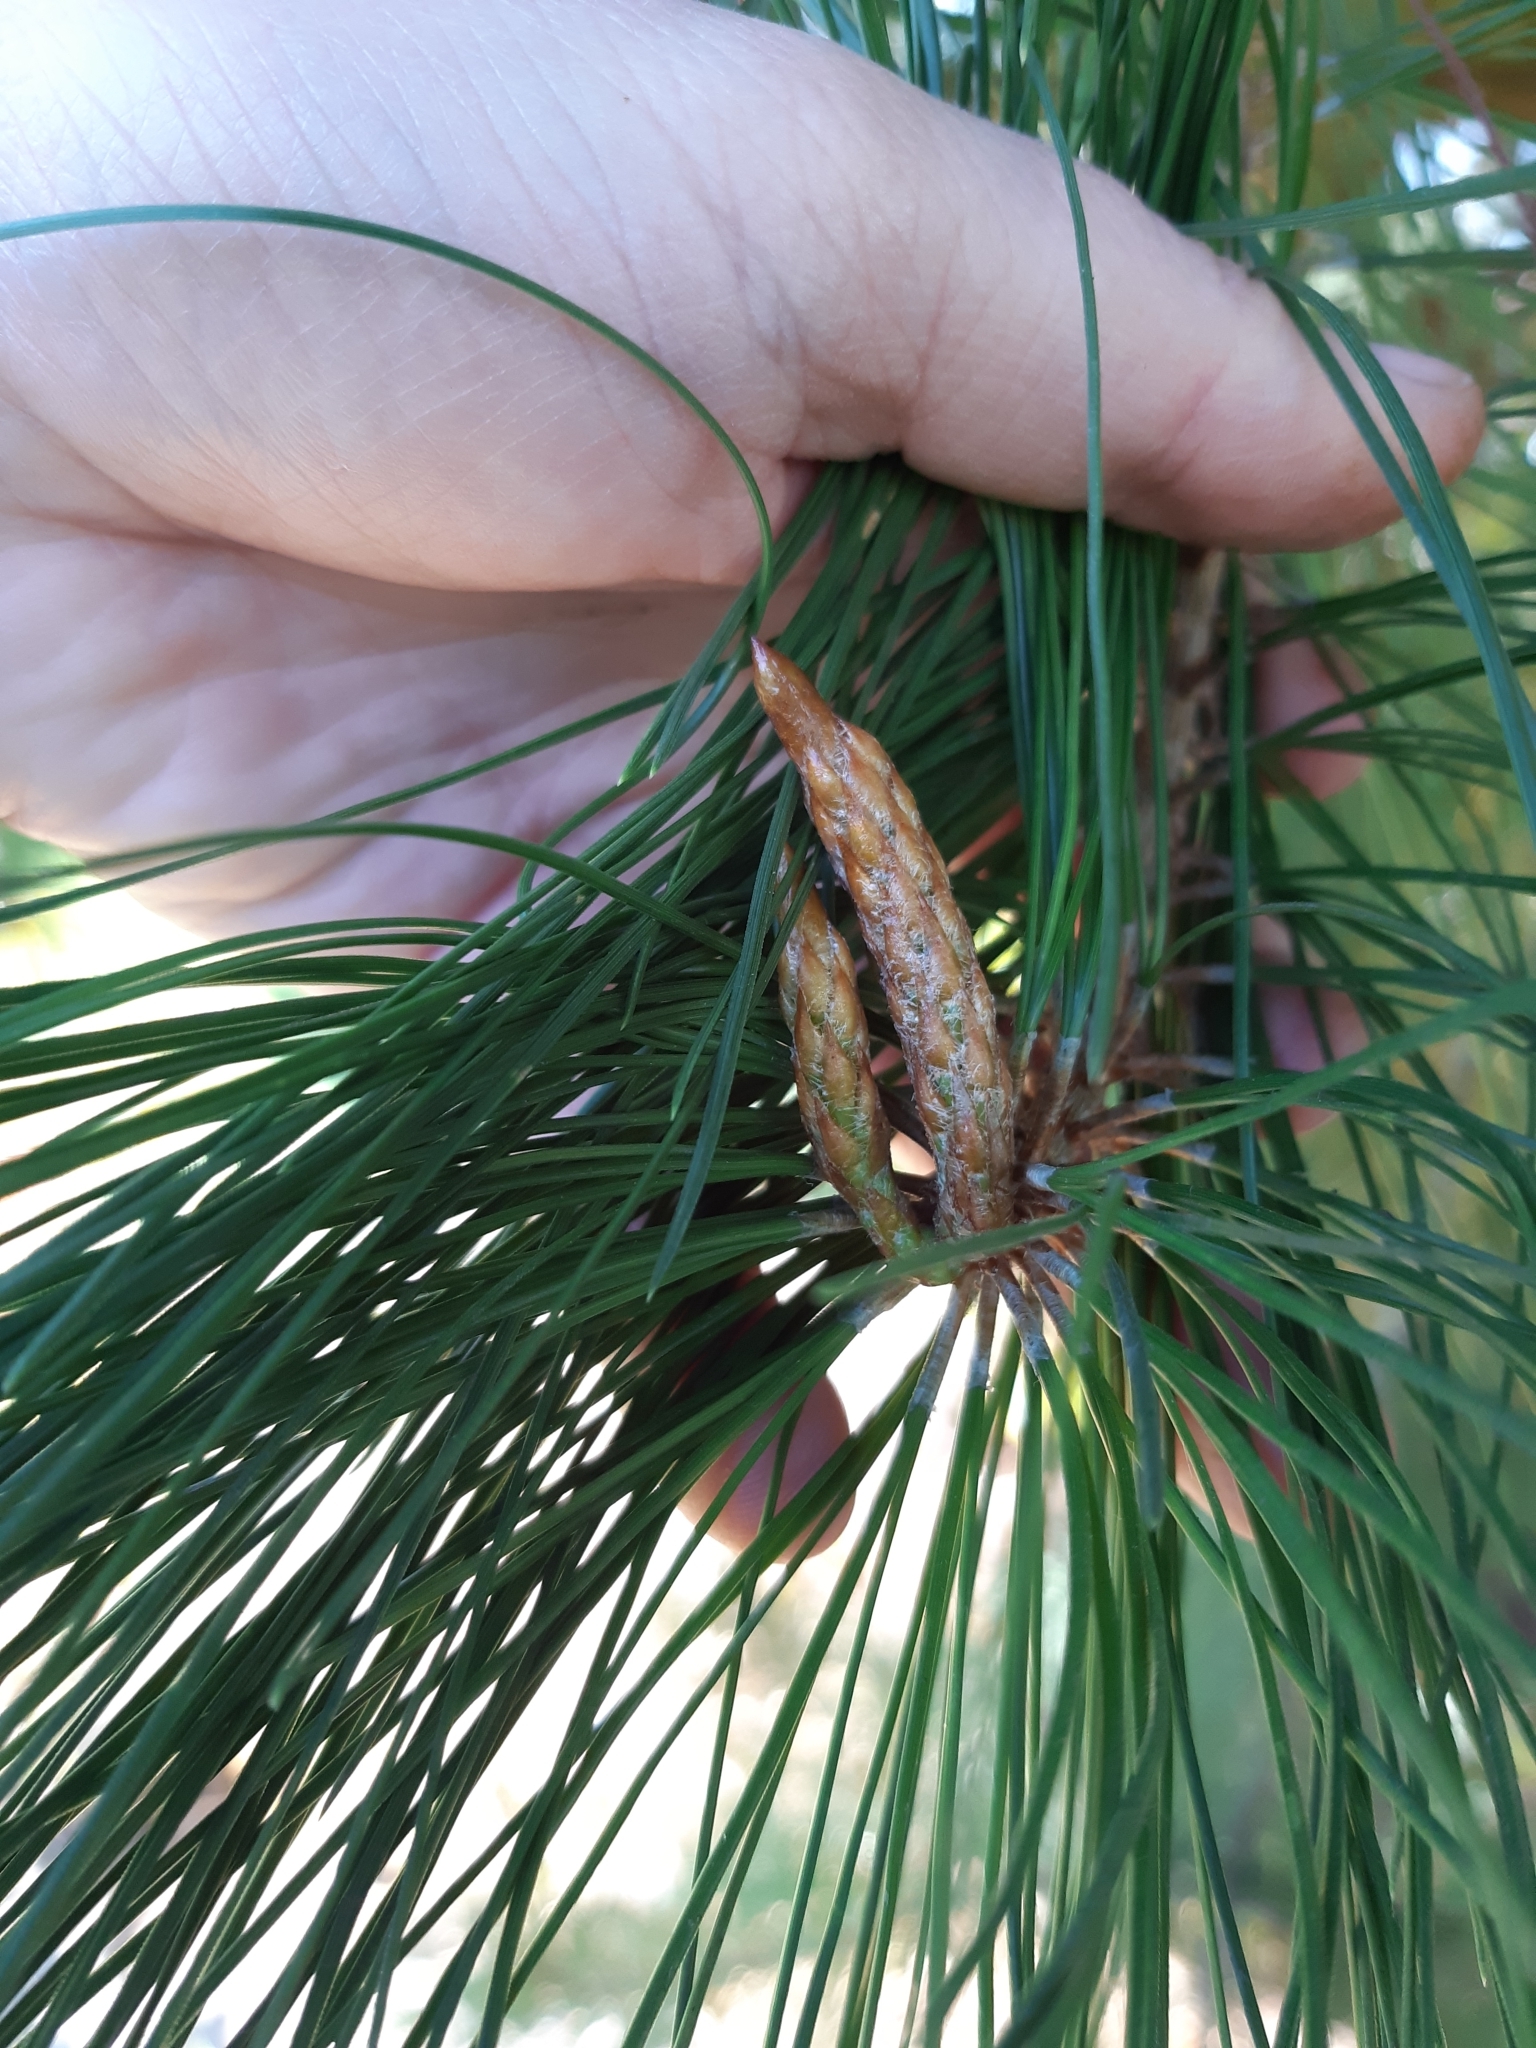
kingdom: Fungi
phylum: Basidiomycota
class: Agaricomycetes
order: Boletales
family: Suillaceae
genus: Suillus
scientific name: Suillus granulatus
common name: Weeping bolete
